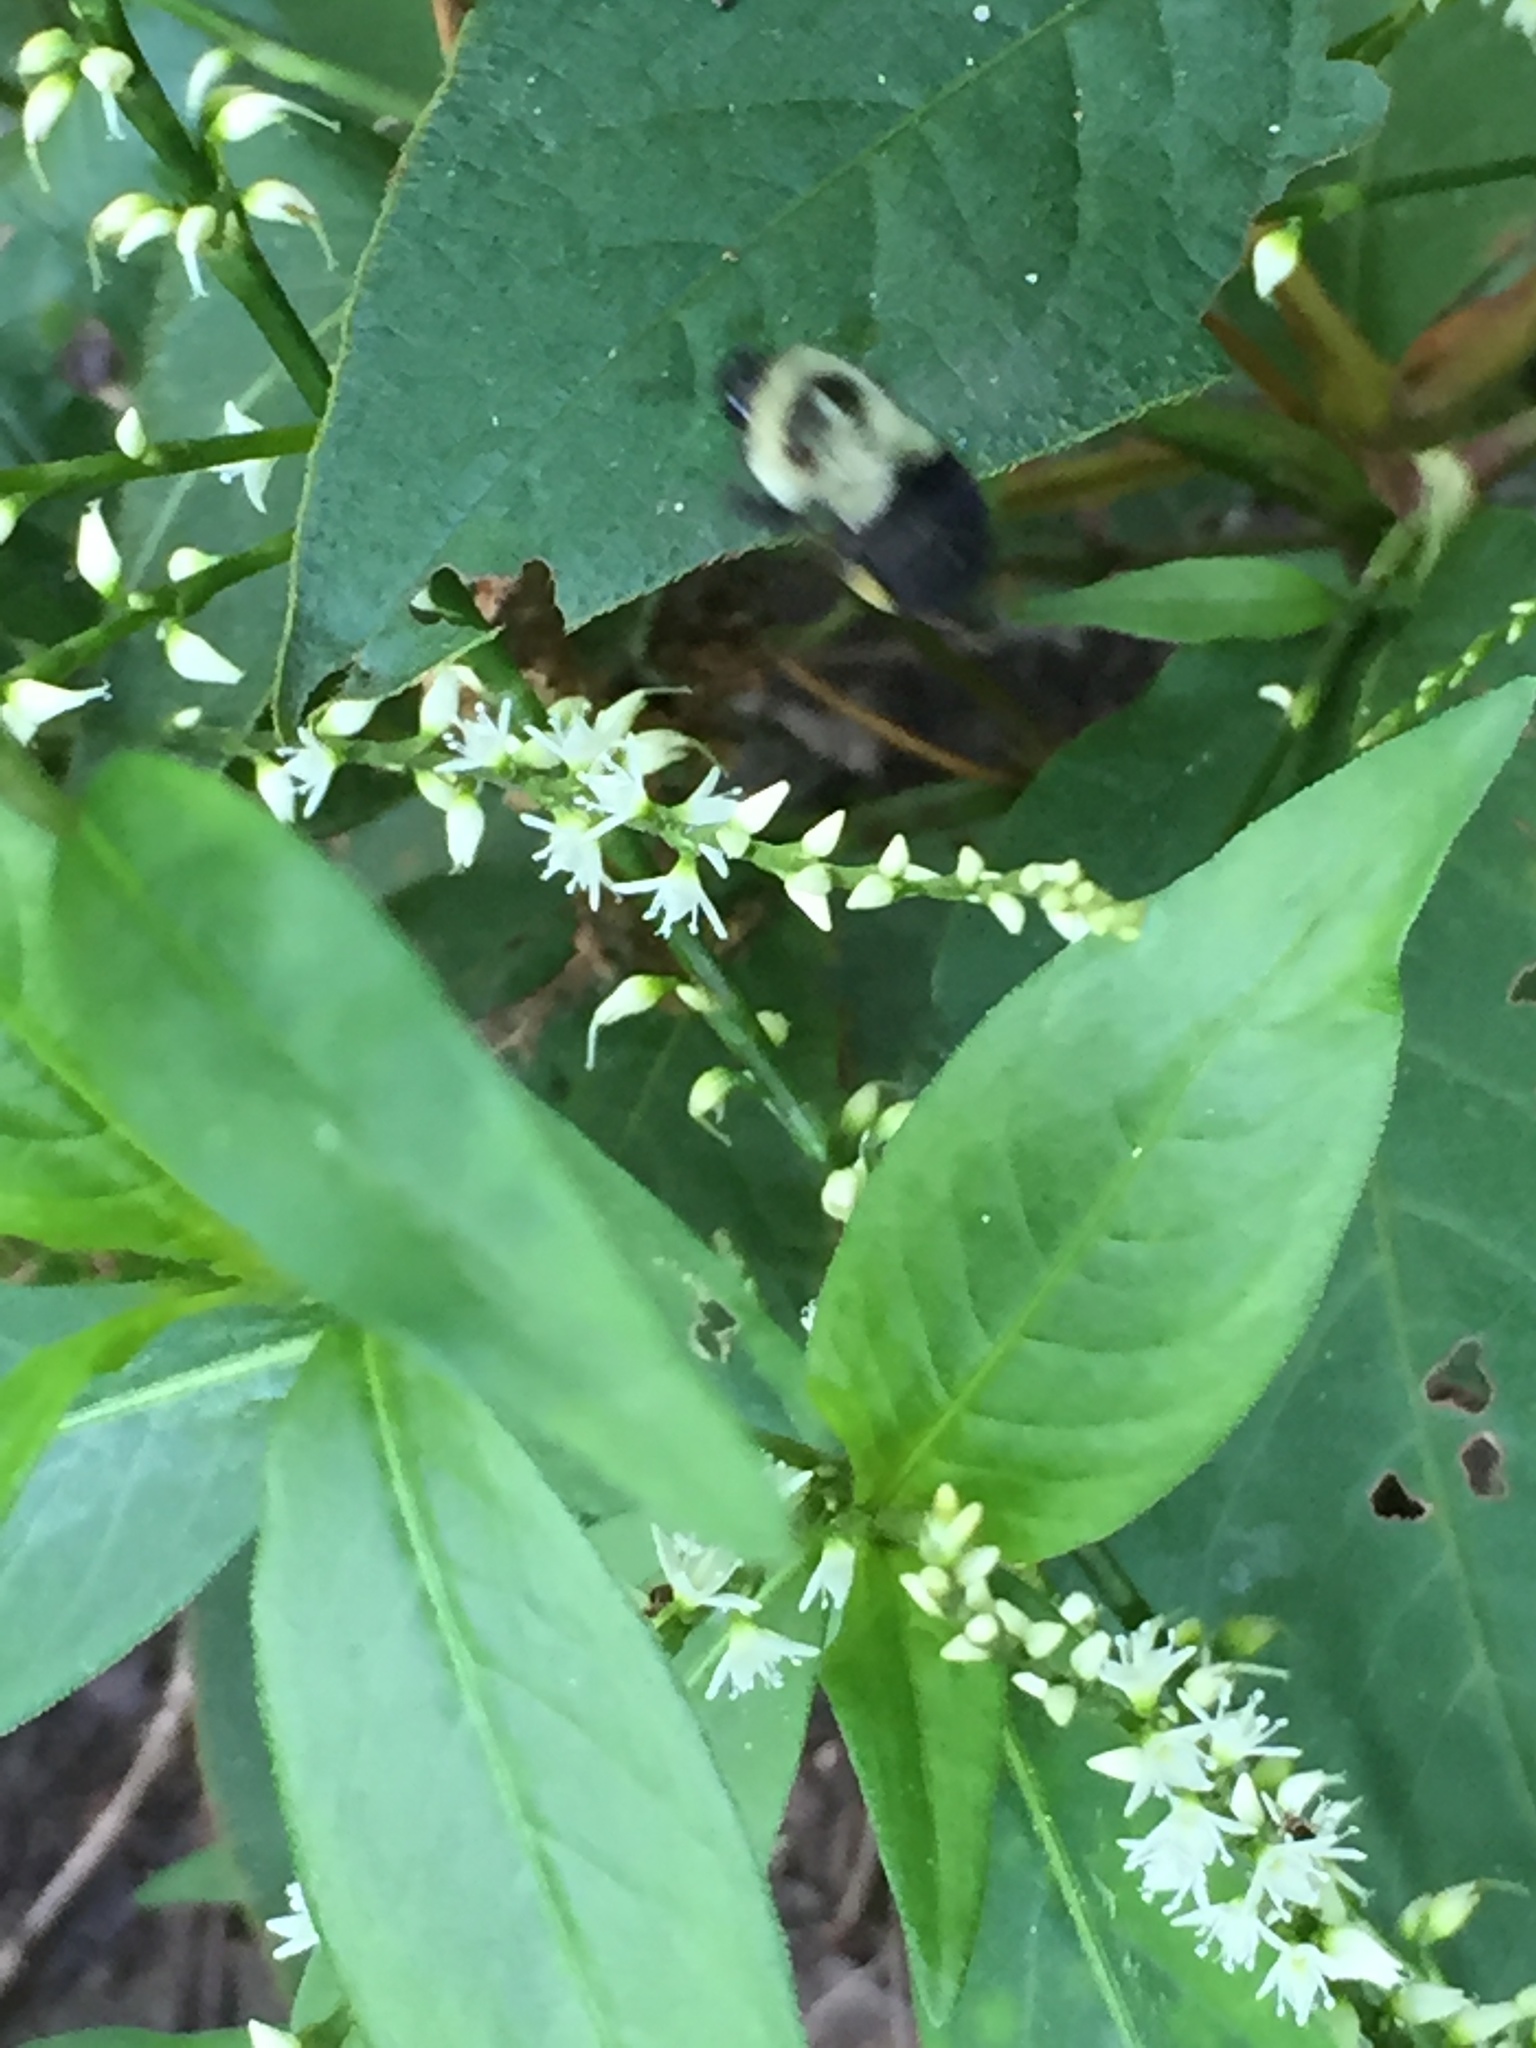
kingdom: Animalia
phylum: Arthropoda
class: Insecta
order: Hymenoptera
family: Apidae
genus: Bombus
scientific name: Bombus impatiens
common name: Common eastern bumble bee
